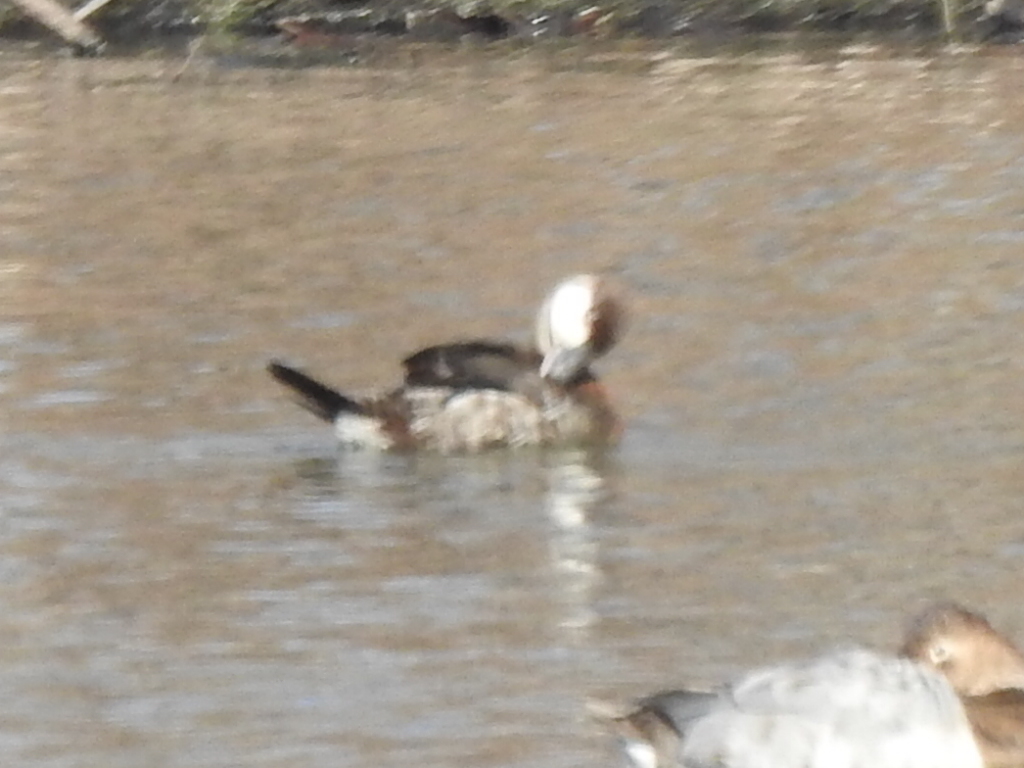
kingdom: Animalia
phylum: Chordata
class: Aves
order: Anseriformes
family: Anatidae
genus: Oxyura
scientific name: Oxyura jamaicensis
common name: Ruddy duck
